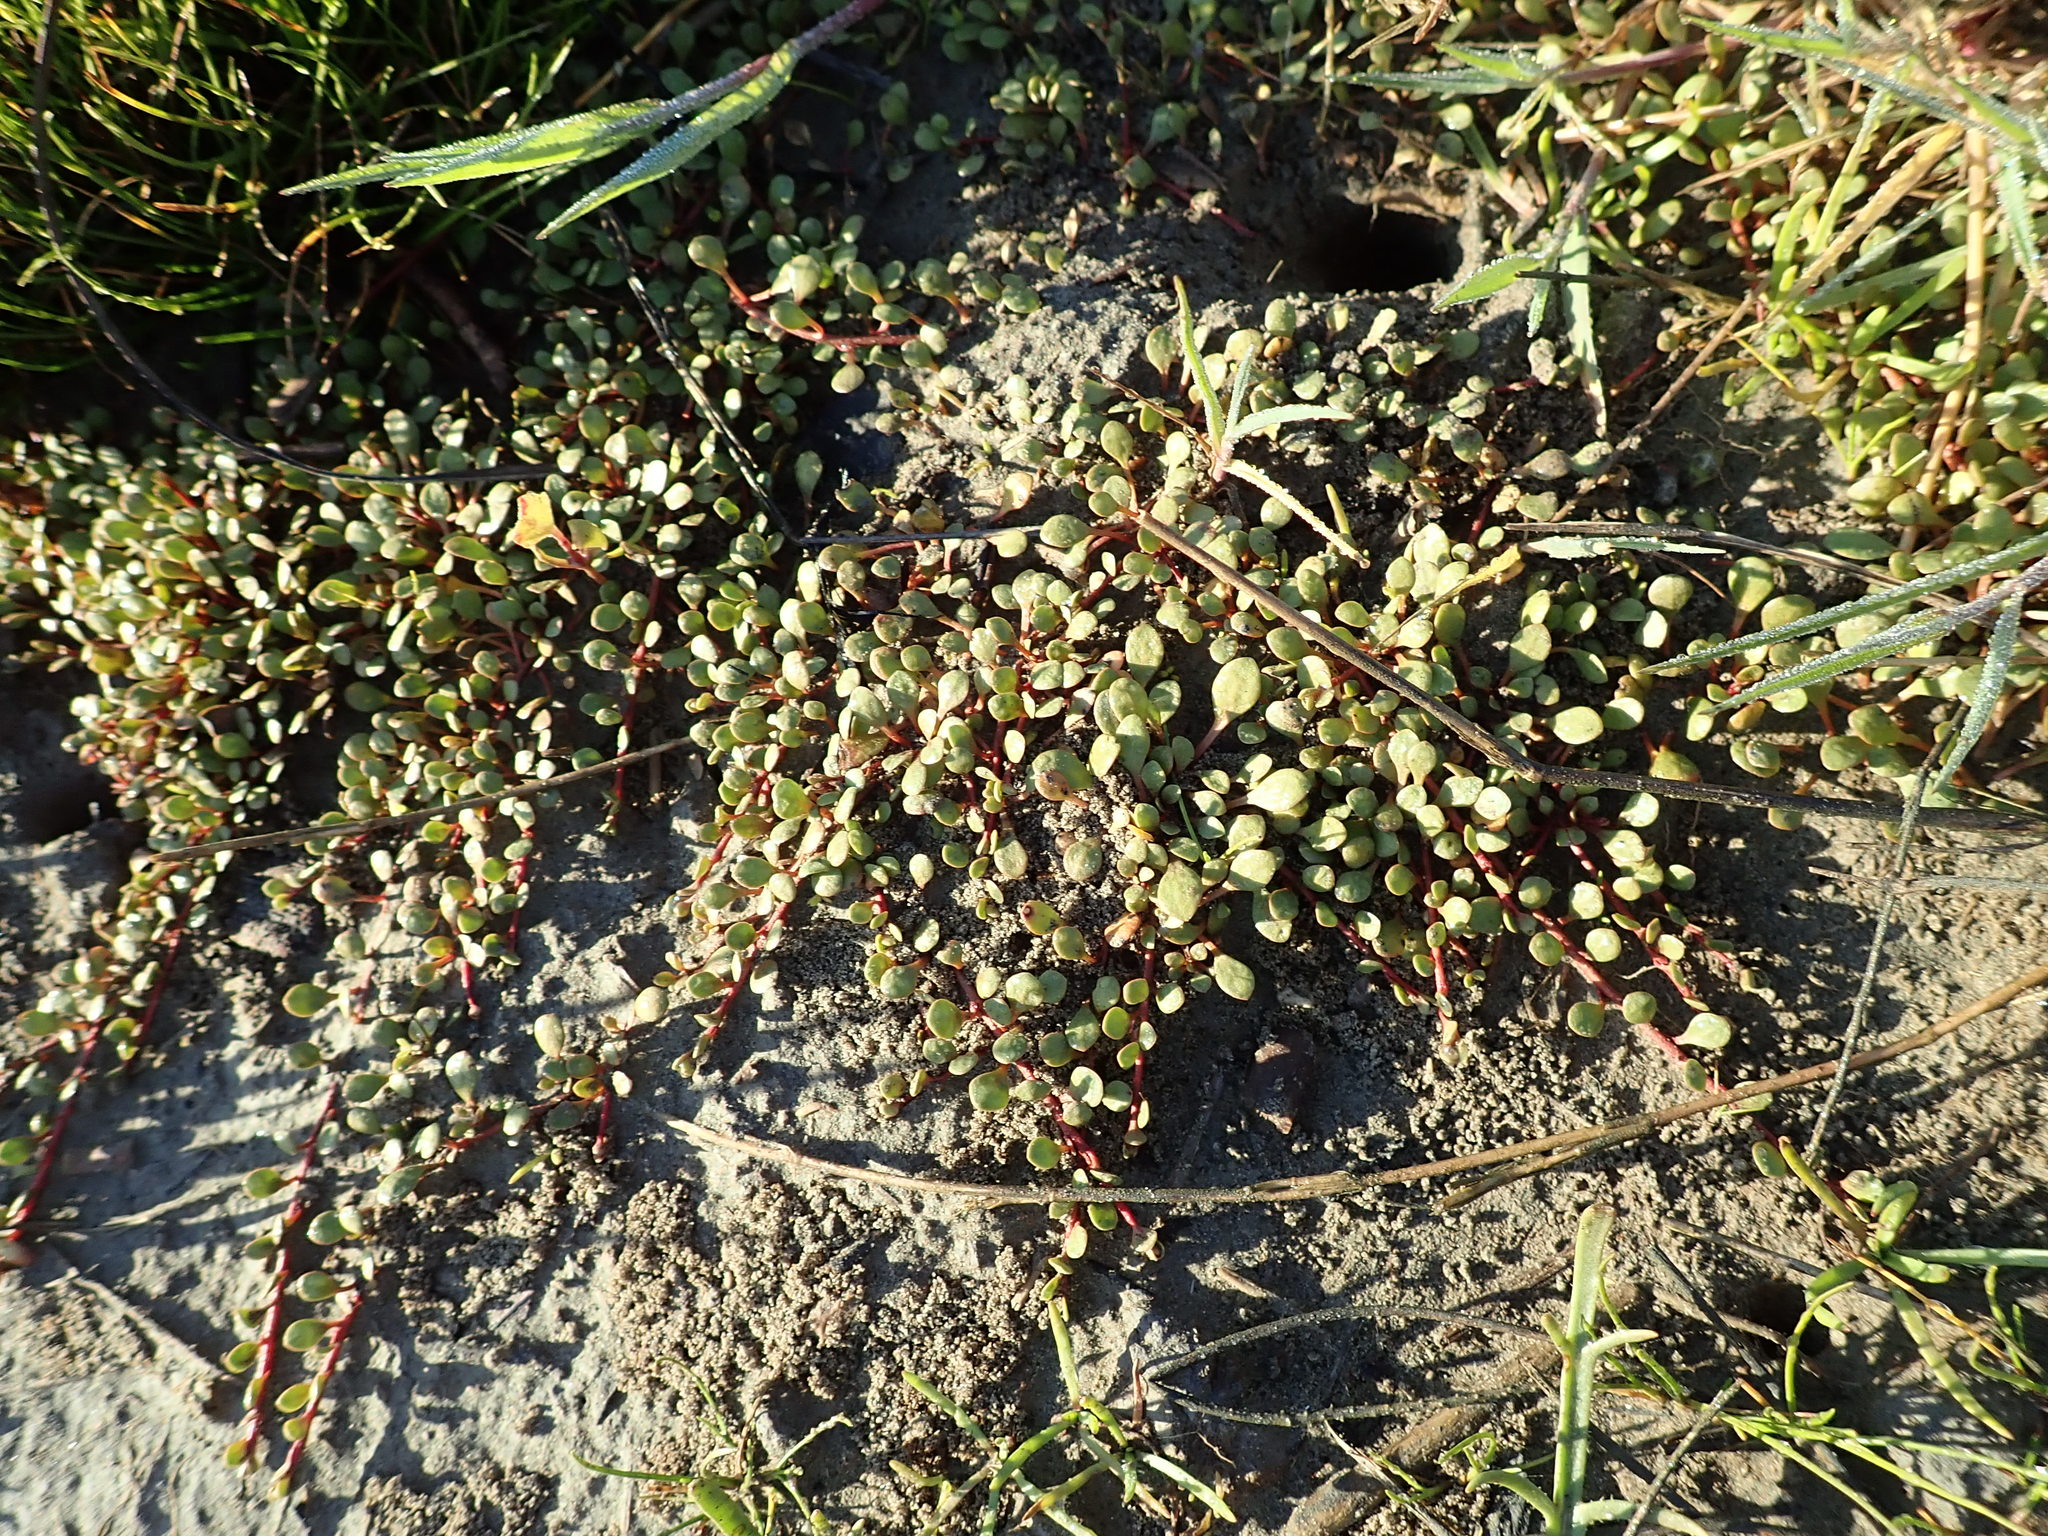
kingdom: Plantae
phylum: Tracheophyta
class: Magnoliopsida
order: Ericales
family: Primulaceae
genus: Samolus
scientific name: Samolus repens
